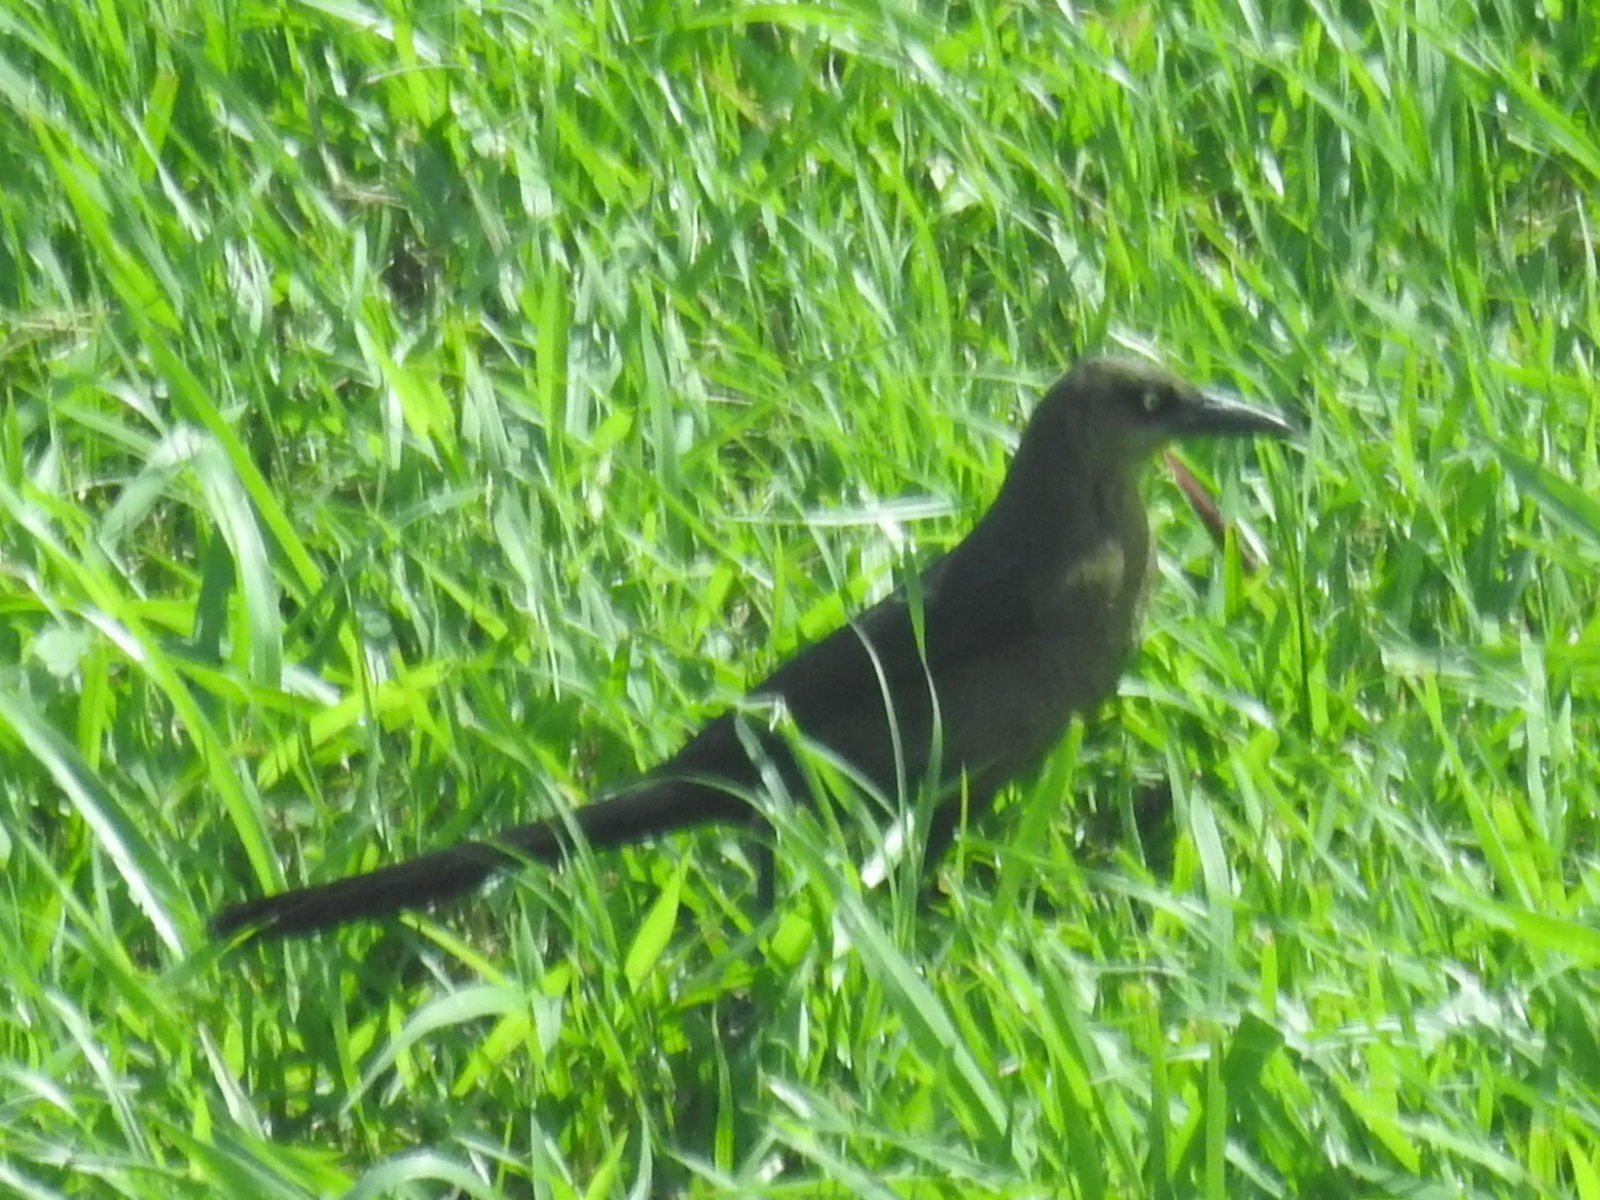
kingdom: Animalia
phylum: Chordata
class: Aves
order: Passeriformes
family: Icteridae
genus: Quiscalus
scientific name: Quiscalus mexicanus
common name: Great-tailed grackle
